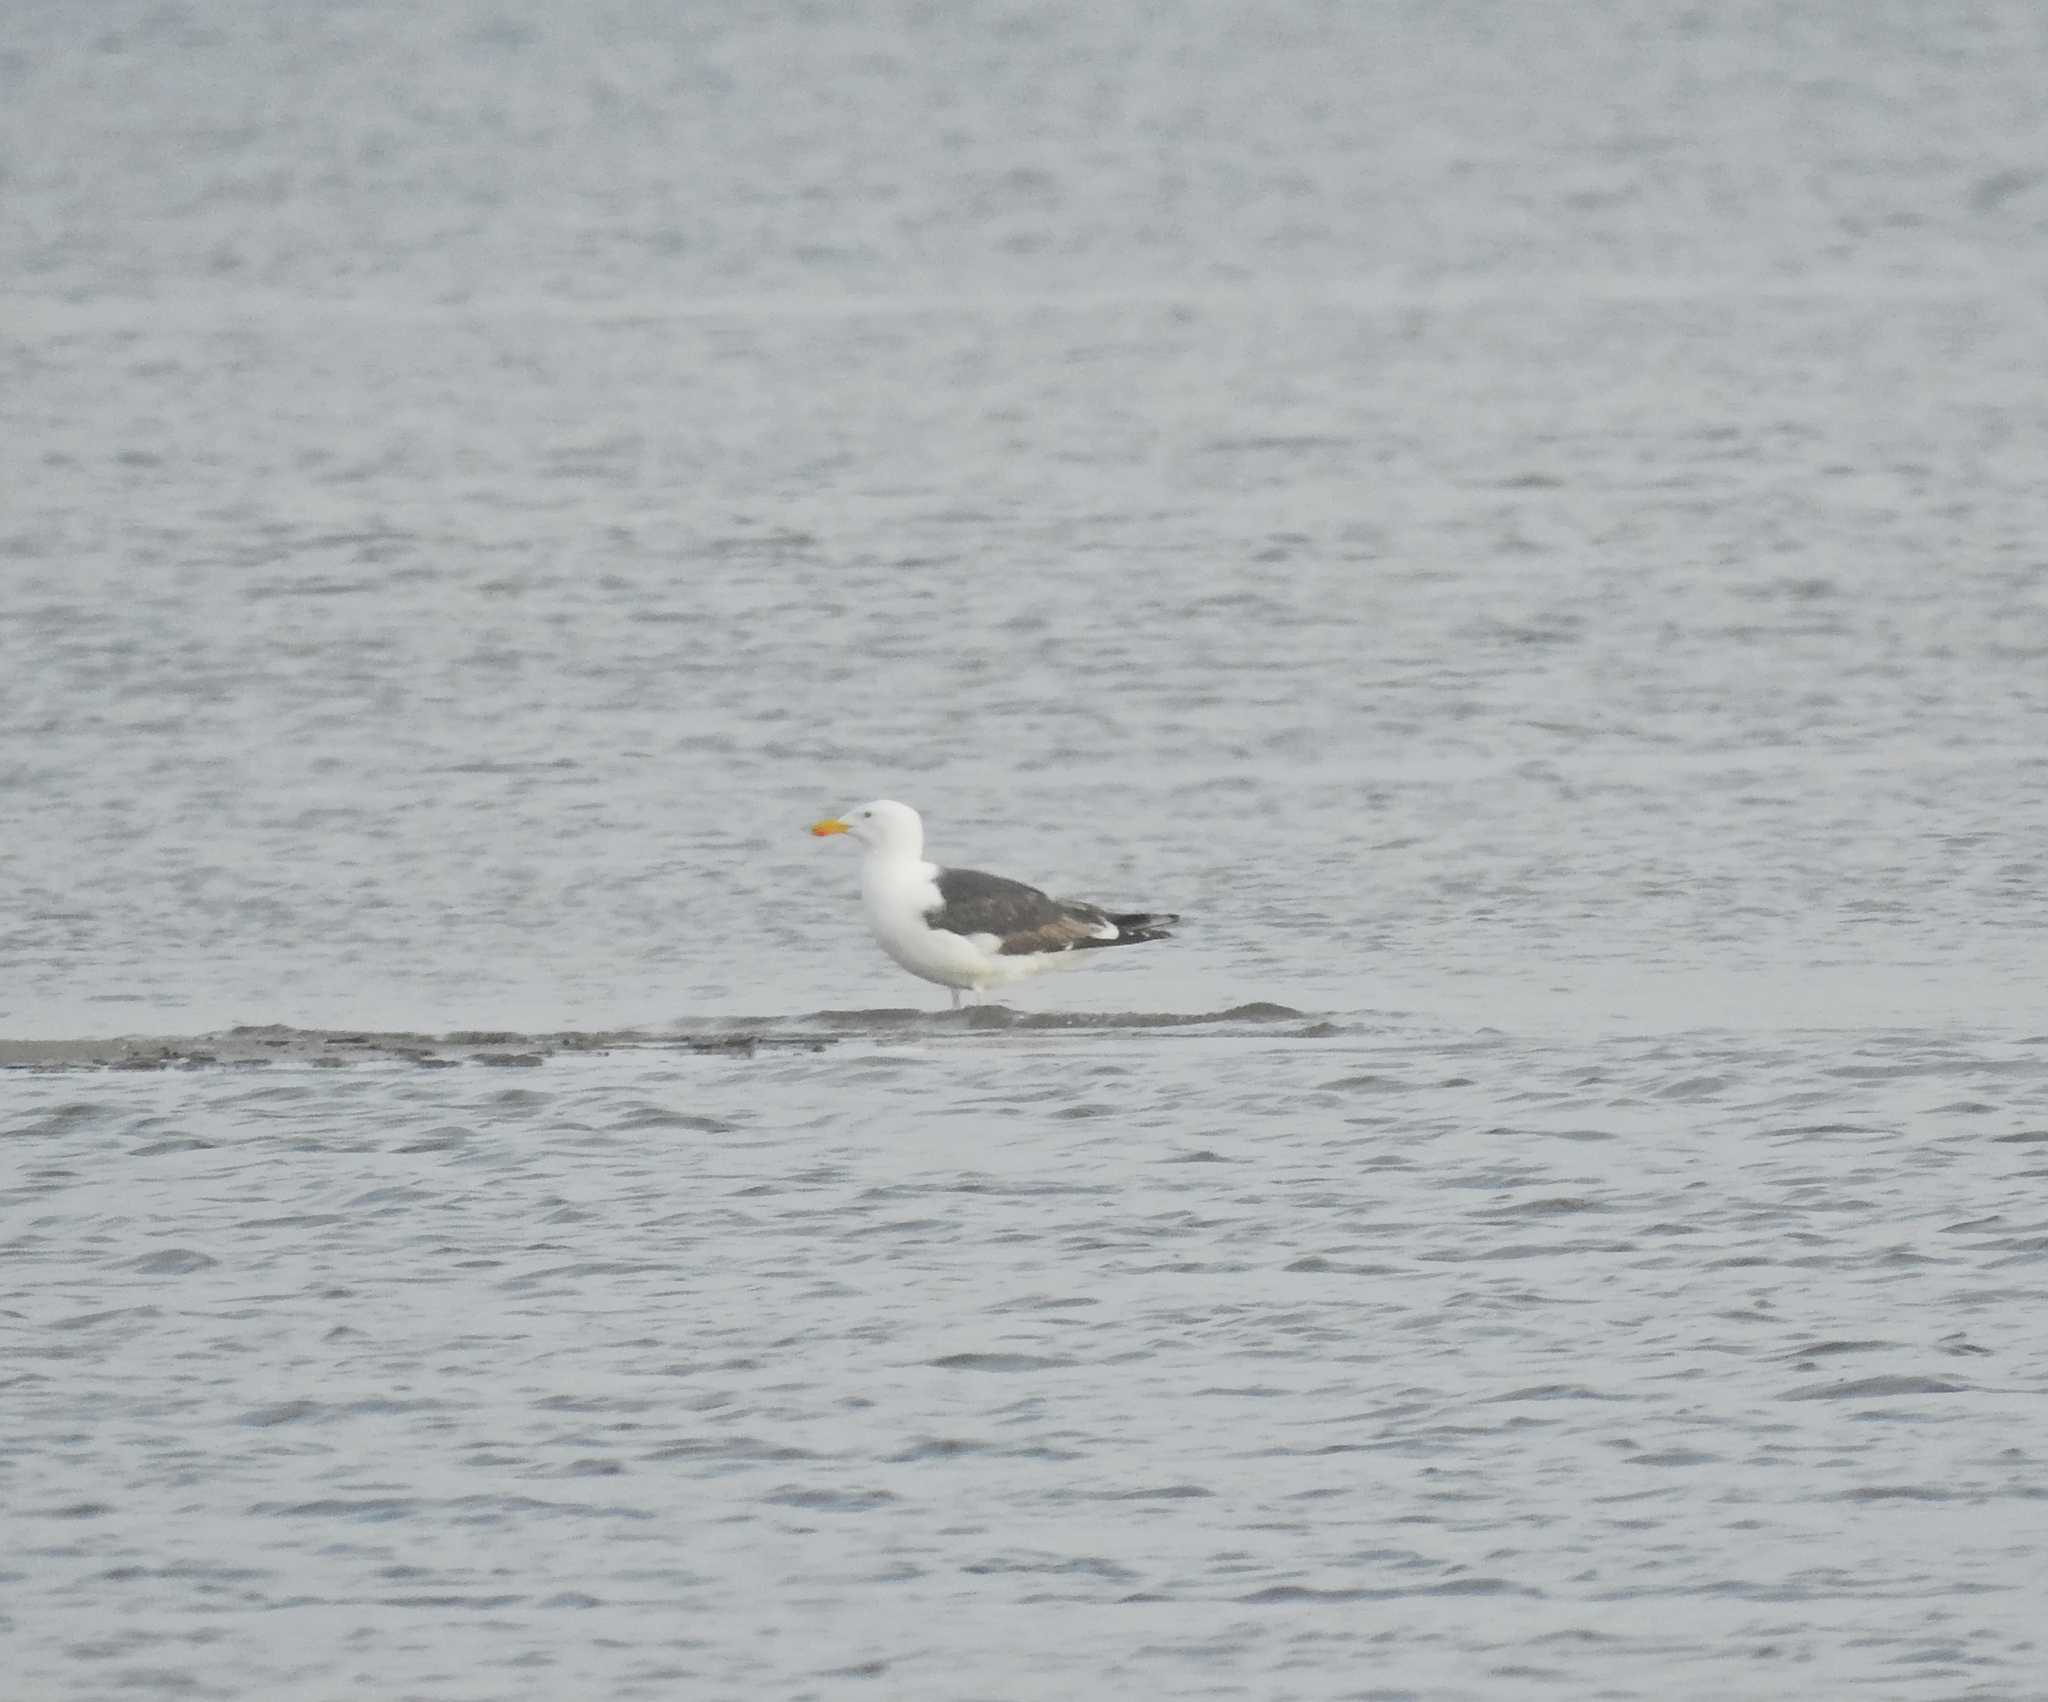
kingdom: Animalia
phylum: Chordata
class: Aves
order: Charadriiformes
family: Laridae
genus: Larus
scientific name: Larus marinus
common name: Great black-backed gull
